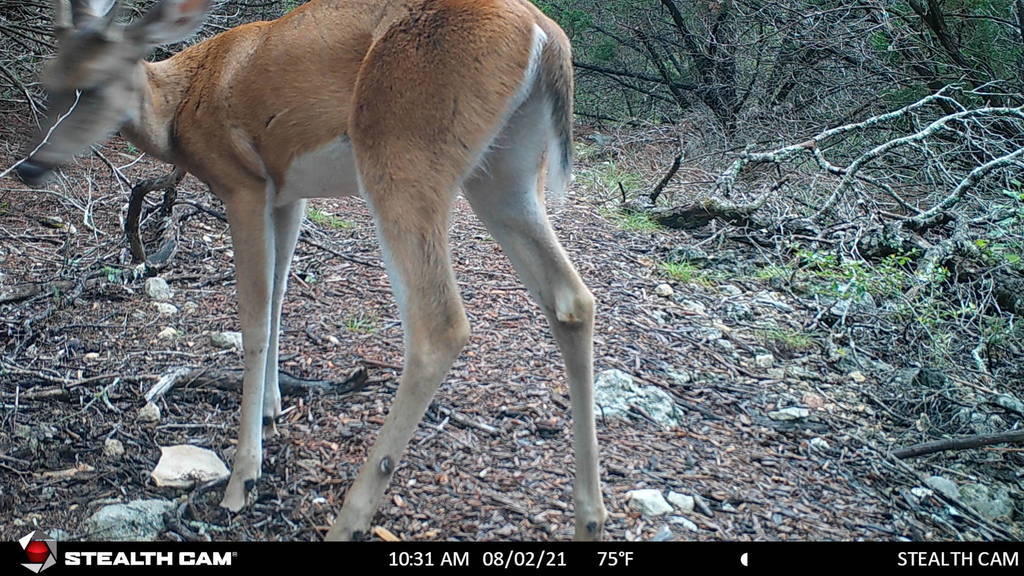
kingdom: Animalia
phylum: Chordata
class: Mammalia
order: Artiodactyla
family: Cervidae
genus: Odocoileus
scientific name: Odocoileus virginianus
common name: White-tailed deer
